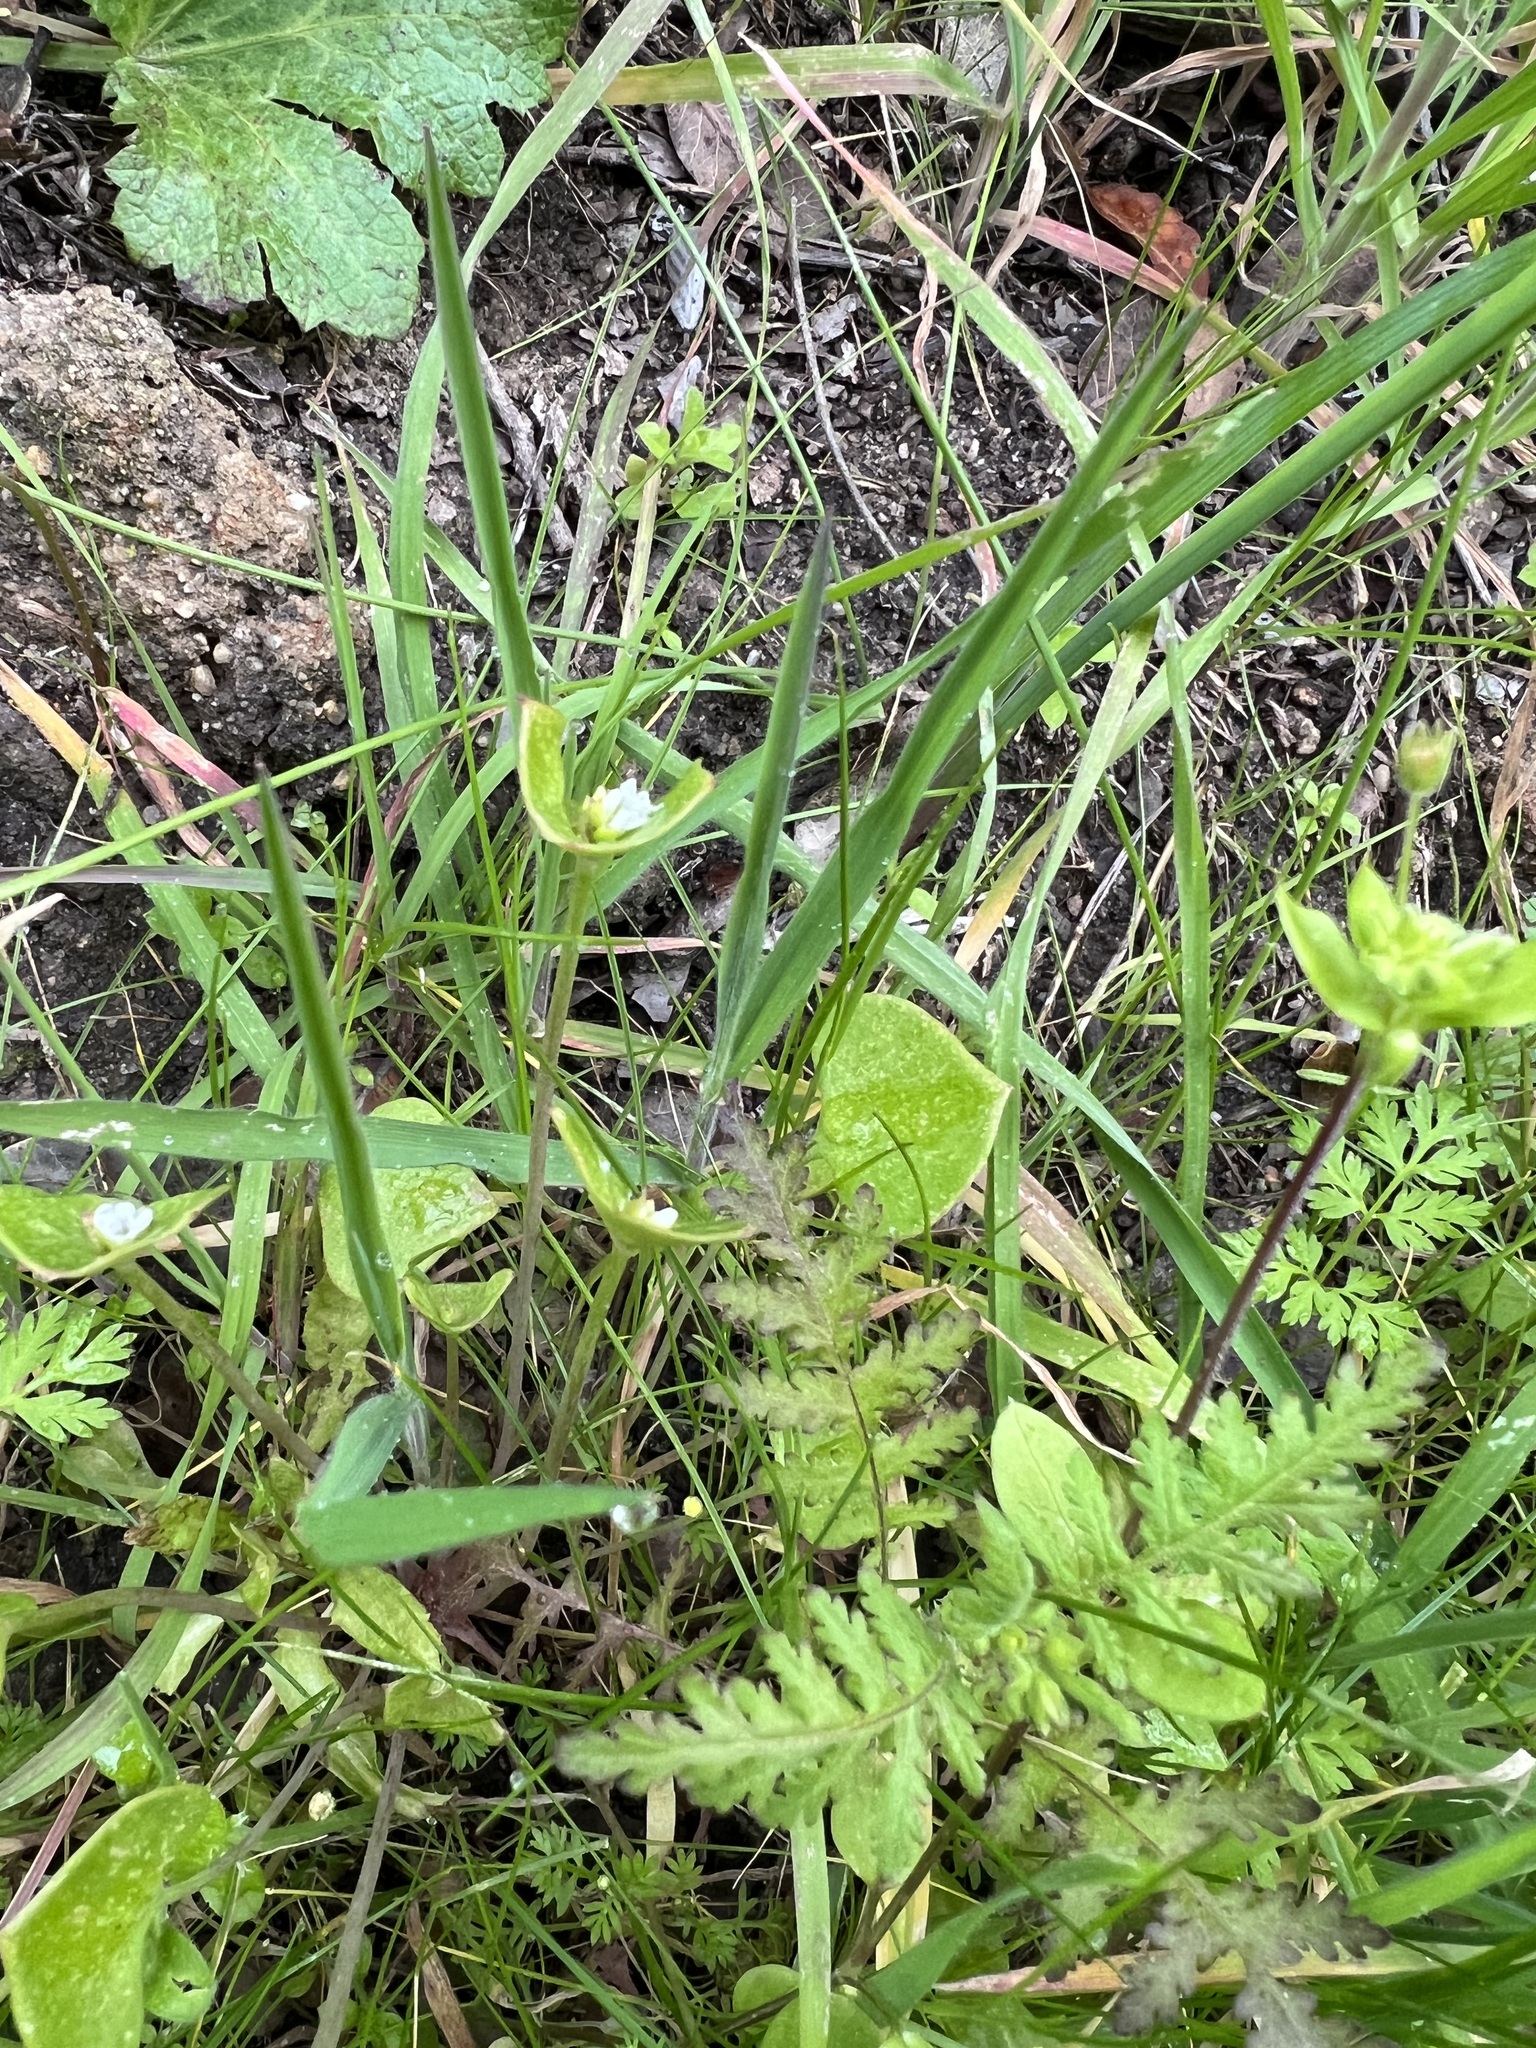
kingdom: Plantae
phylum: Tracheophyta
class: Magnoliopsida
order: Caryophyllales
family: Montiaceae
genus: Claytonia
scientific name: Claytonia perfoliata
